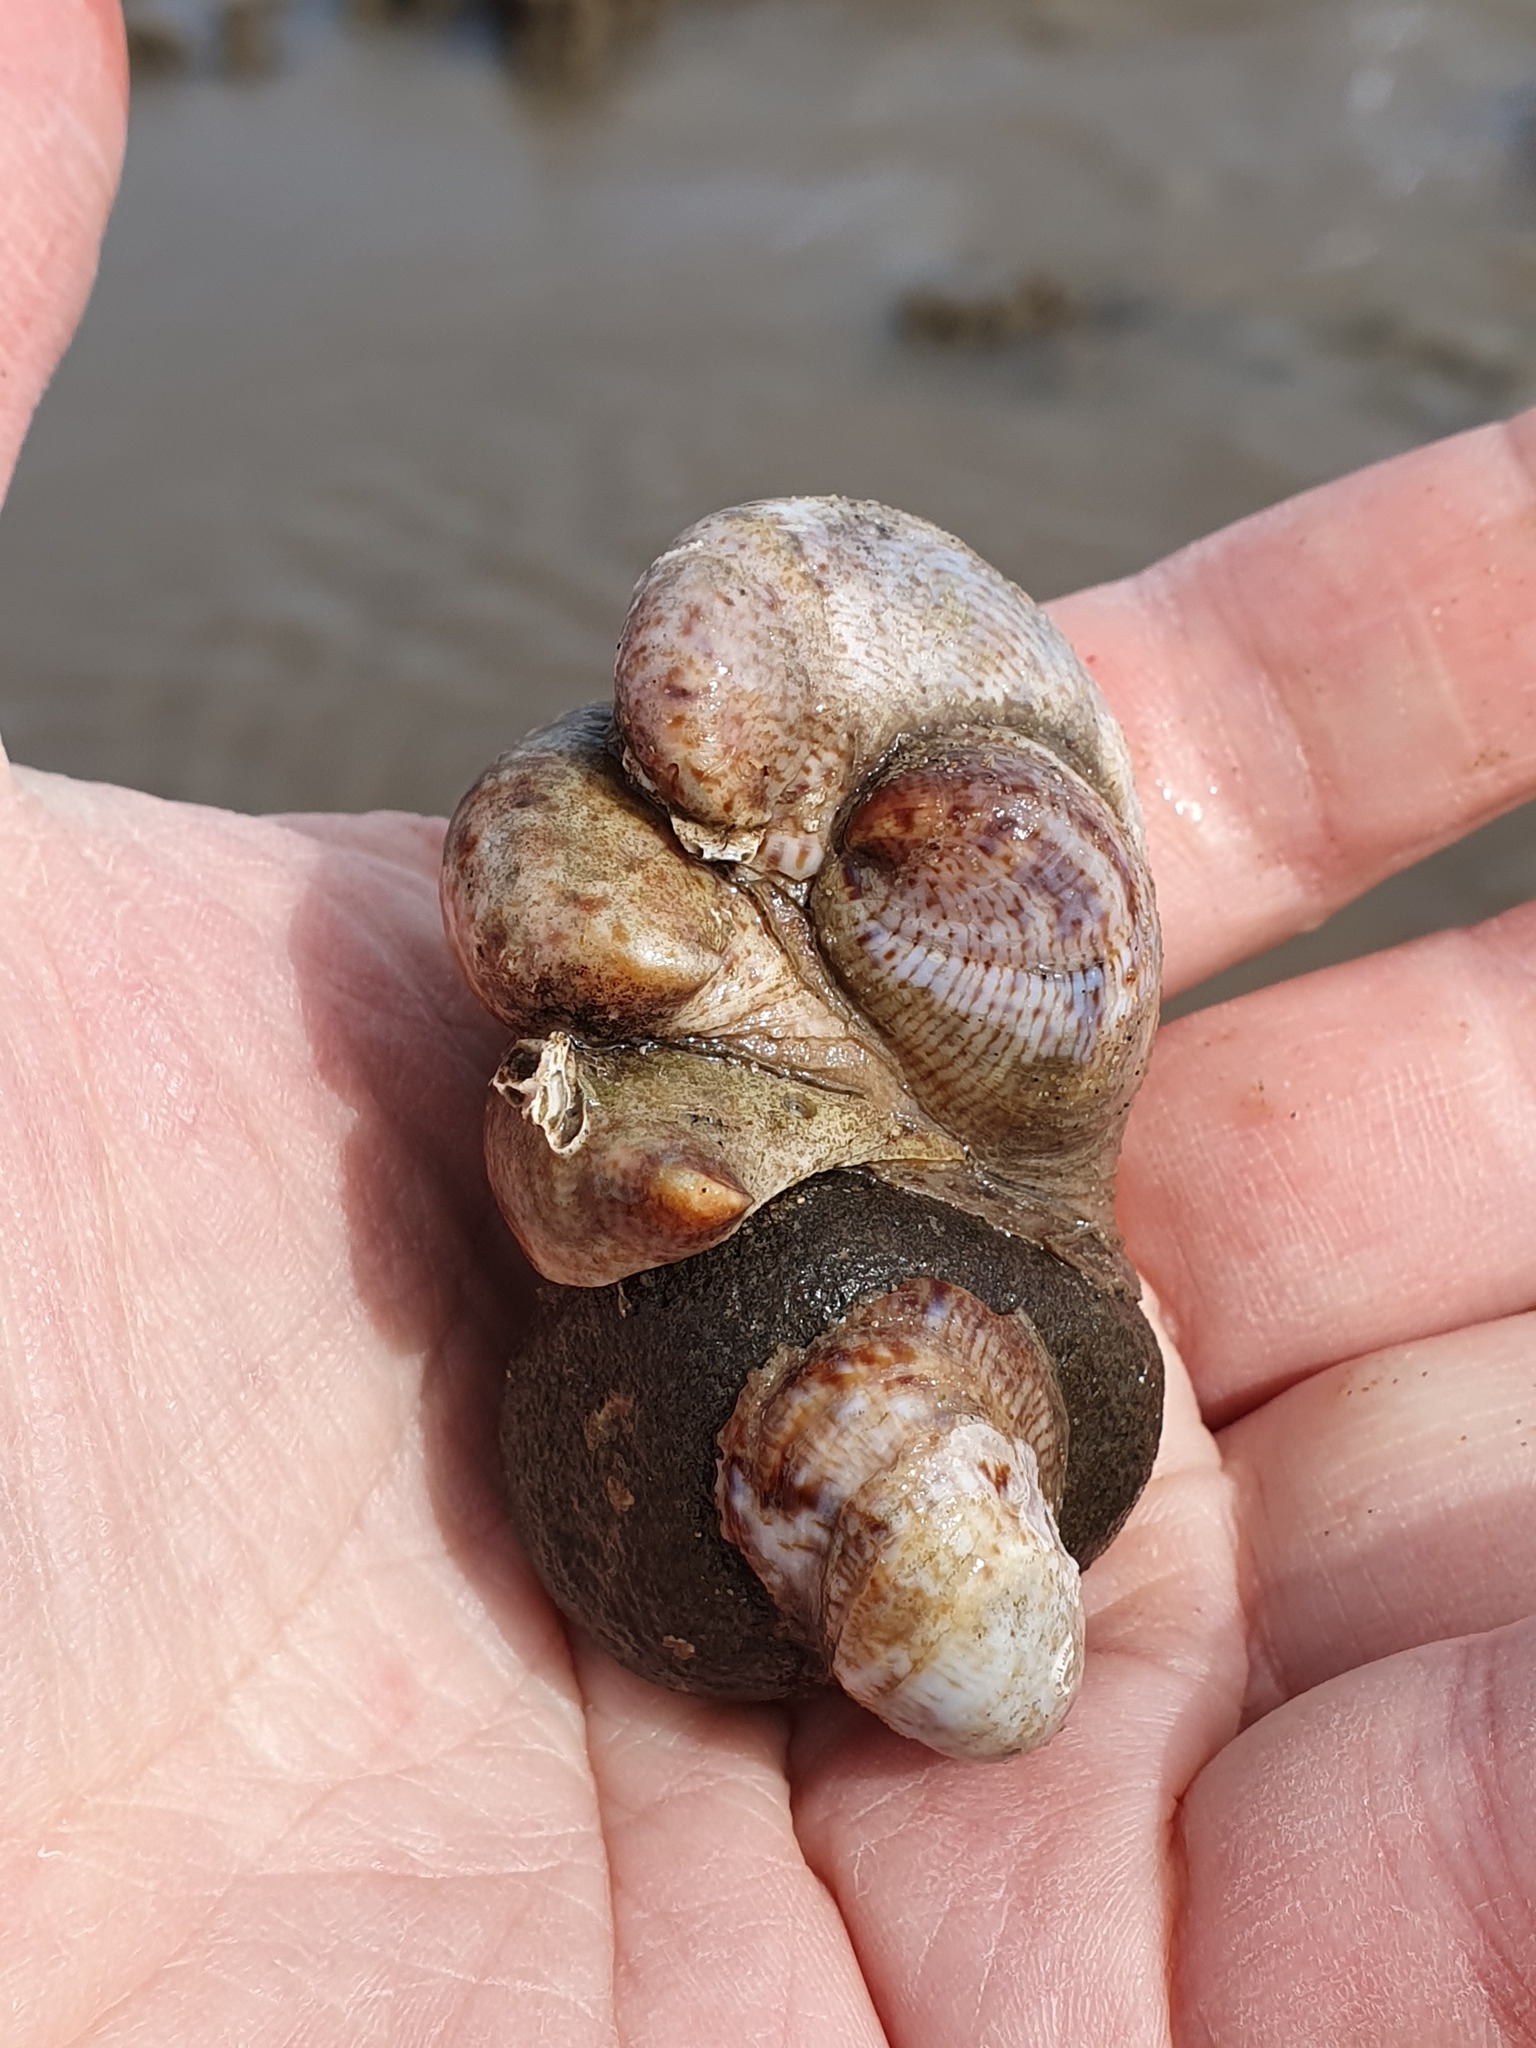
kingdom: Animalia
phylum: Mollusca
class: Gastropoda
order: Littorinimorpha
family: Calyptraeidae
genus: Crepidula
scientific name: Crepidula fornicata
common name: Slipper limpet
